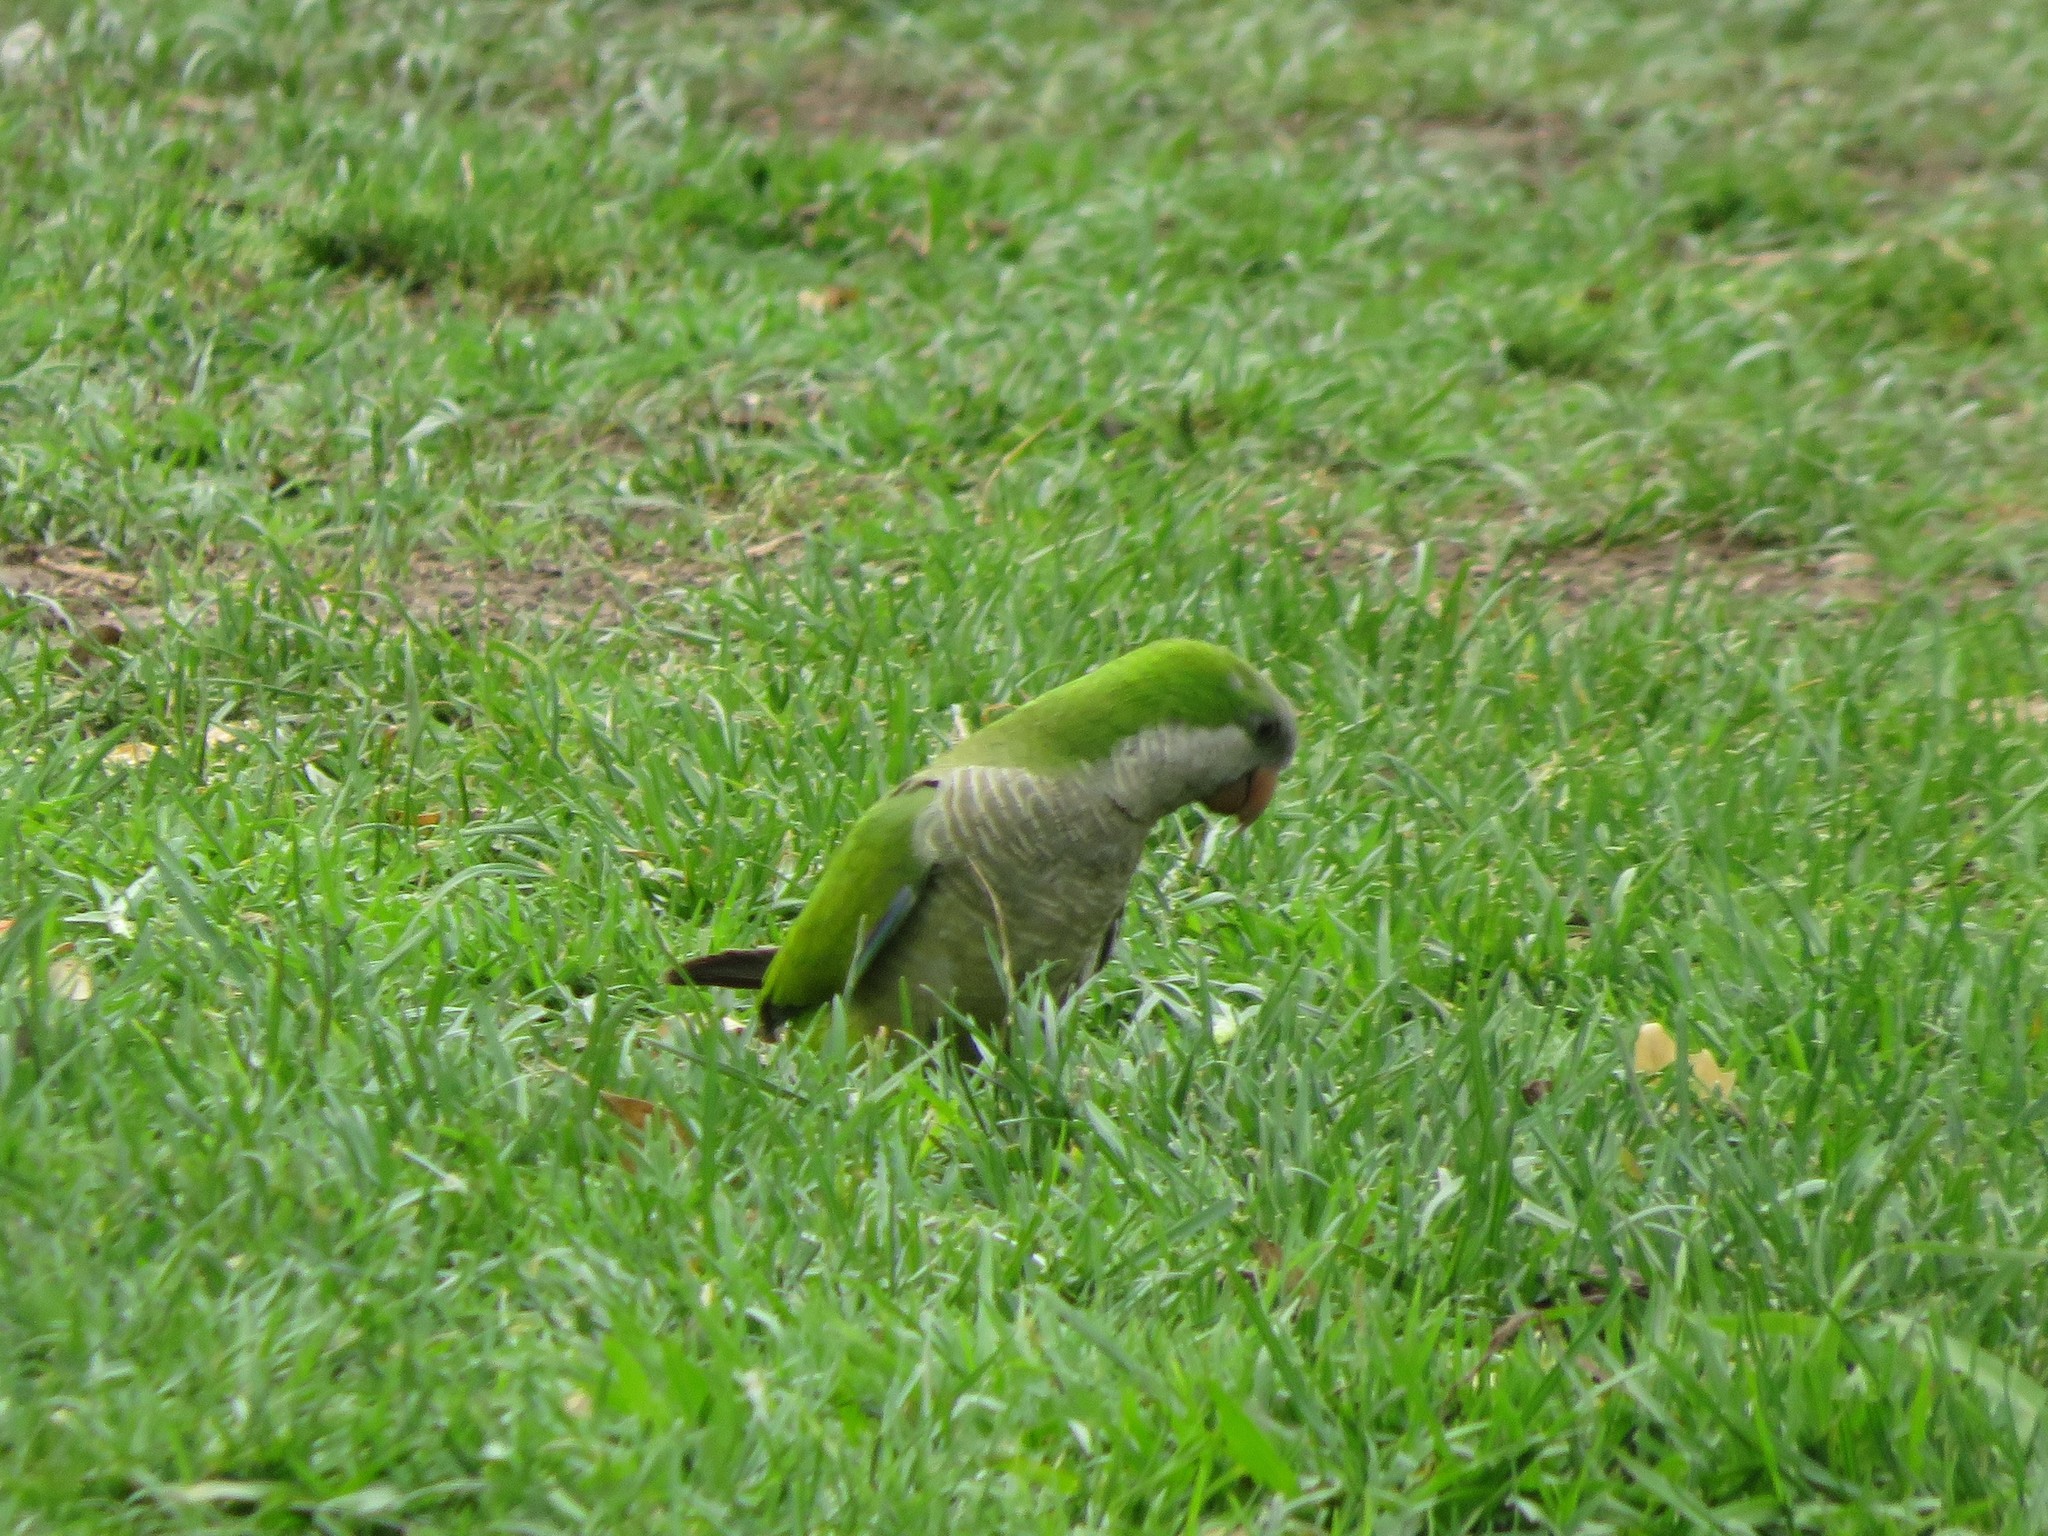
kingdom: Animalia
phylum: Chordata
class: Aves
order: Psittaciformes
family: Psittacidae
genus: Myiopsitta
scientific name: Myiopsitta monachus
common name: Monk parakeet
